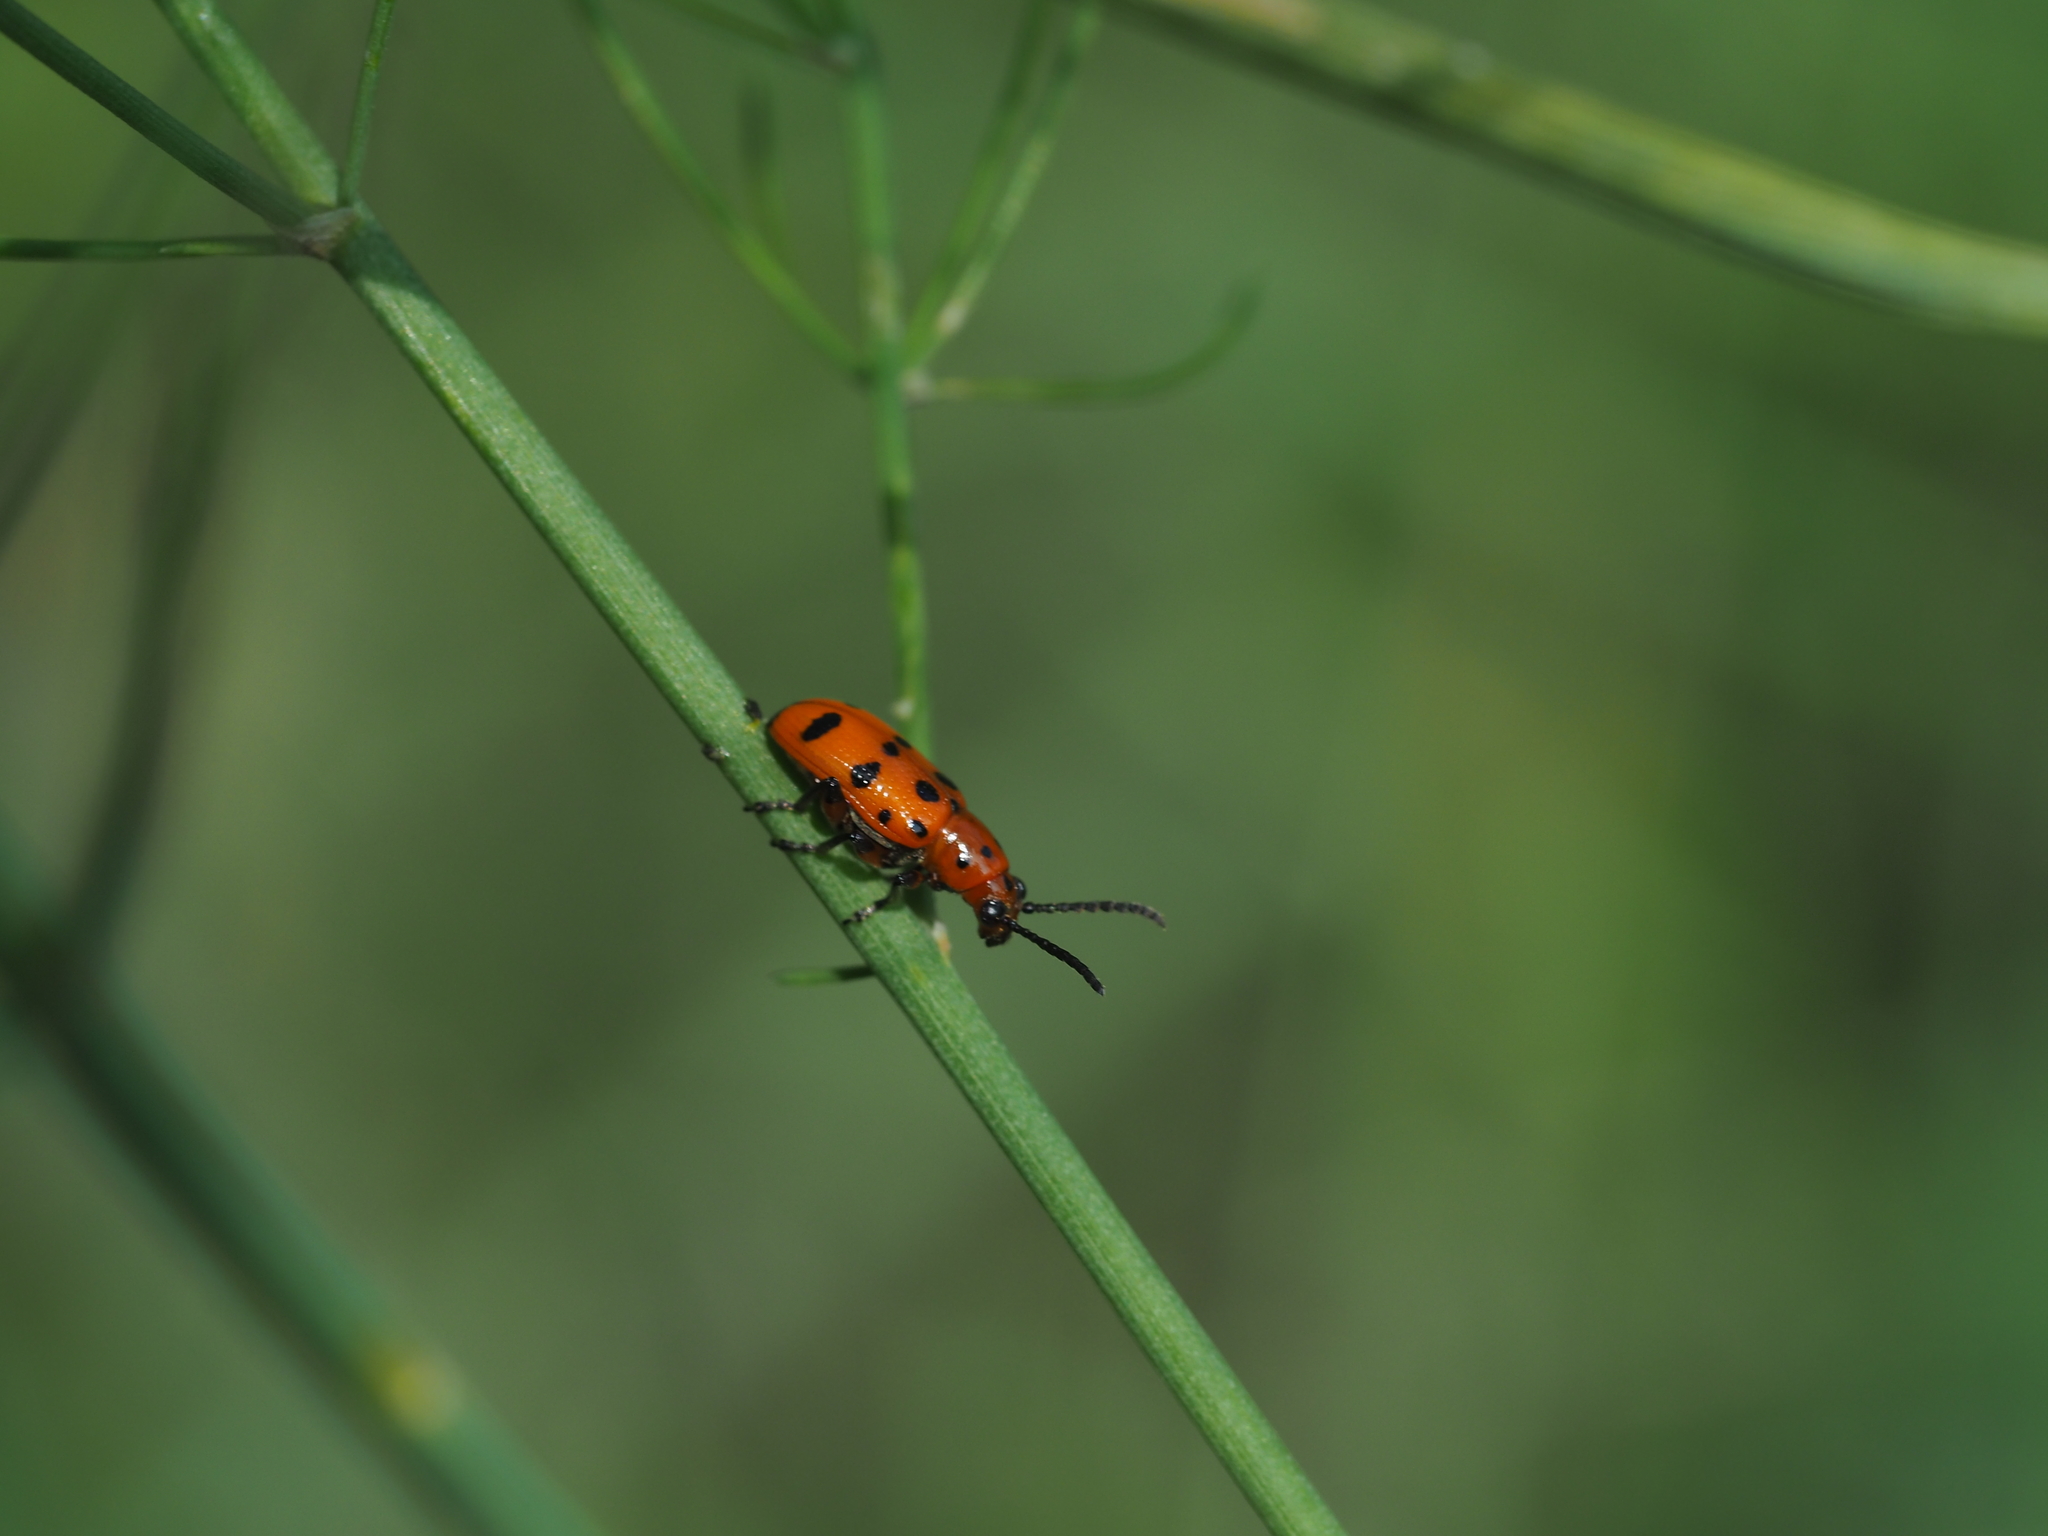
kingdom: Animalia
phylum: Arthropoda
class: Insecta
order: Coleoptera
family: Chrysomelidae
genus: Crioceris
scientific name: Crioceris quatuordecimpunctata
